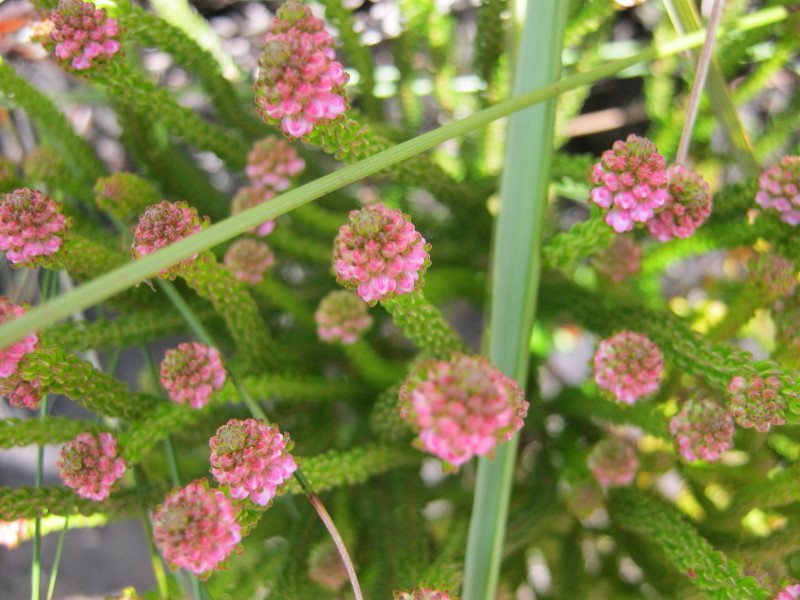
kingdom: Plantae
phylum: Tracheophyta
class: Magnoliopsida
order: Ericales
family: Ericaceae
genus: Erica
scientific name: Erica seriphiifolia
